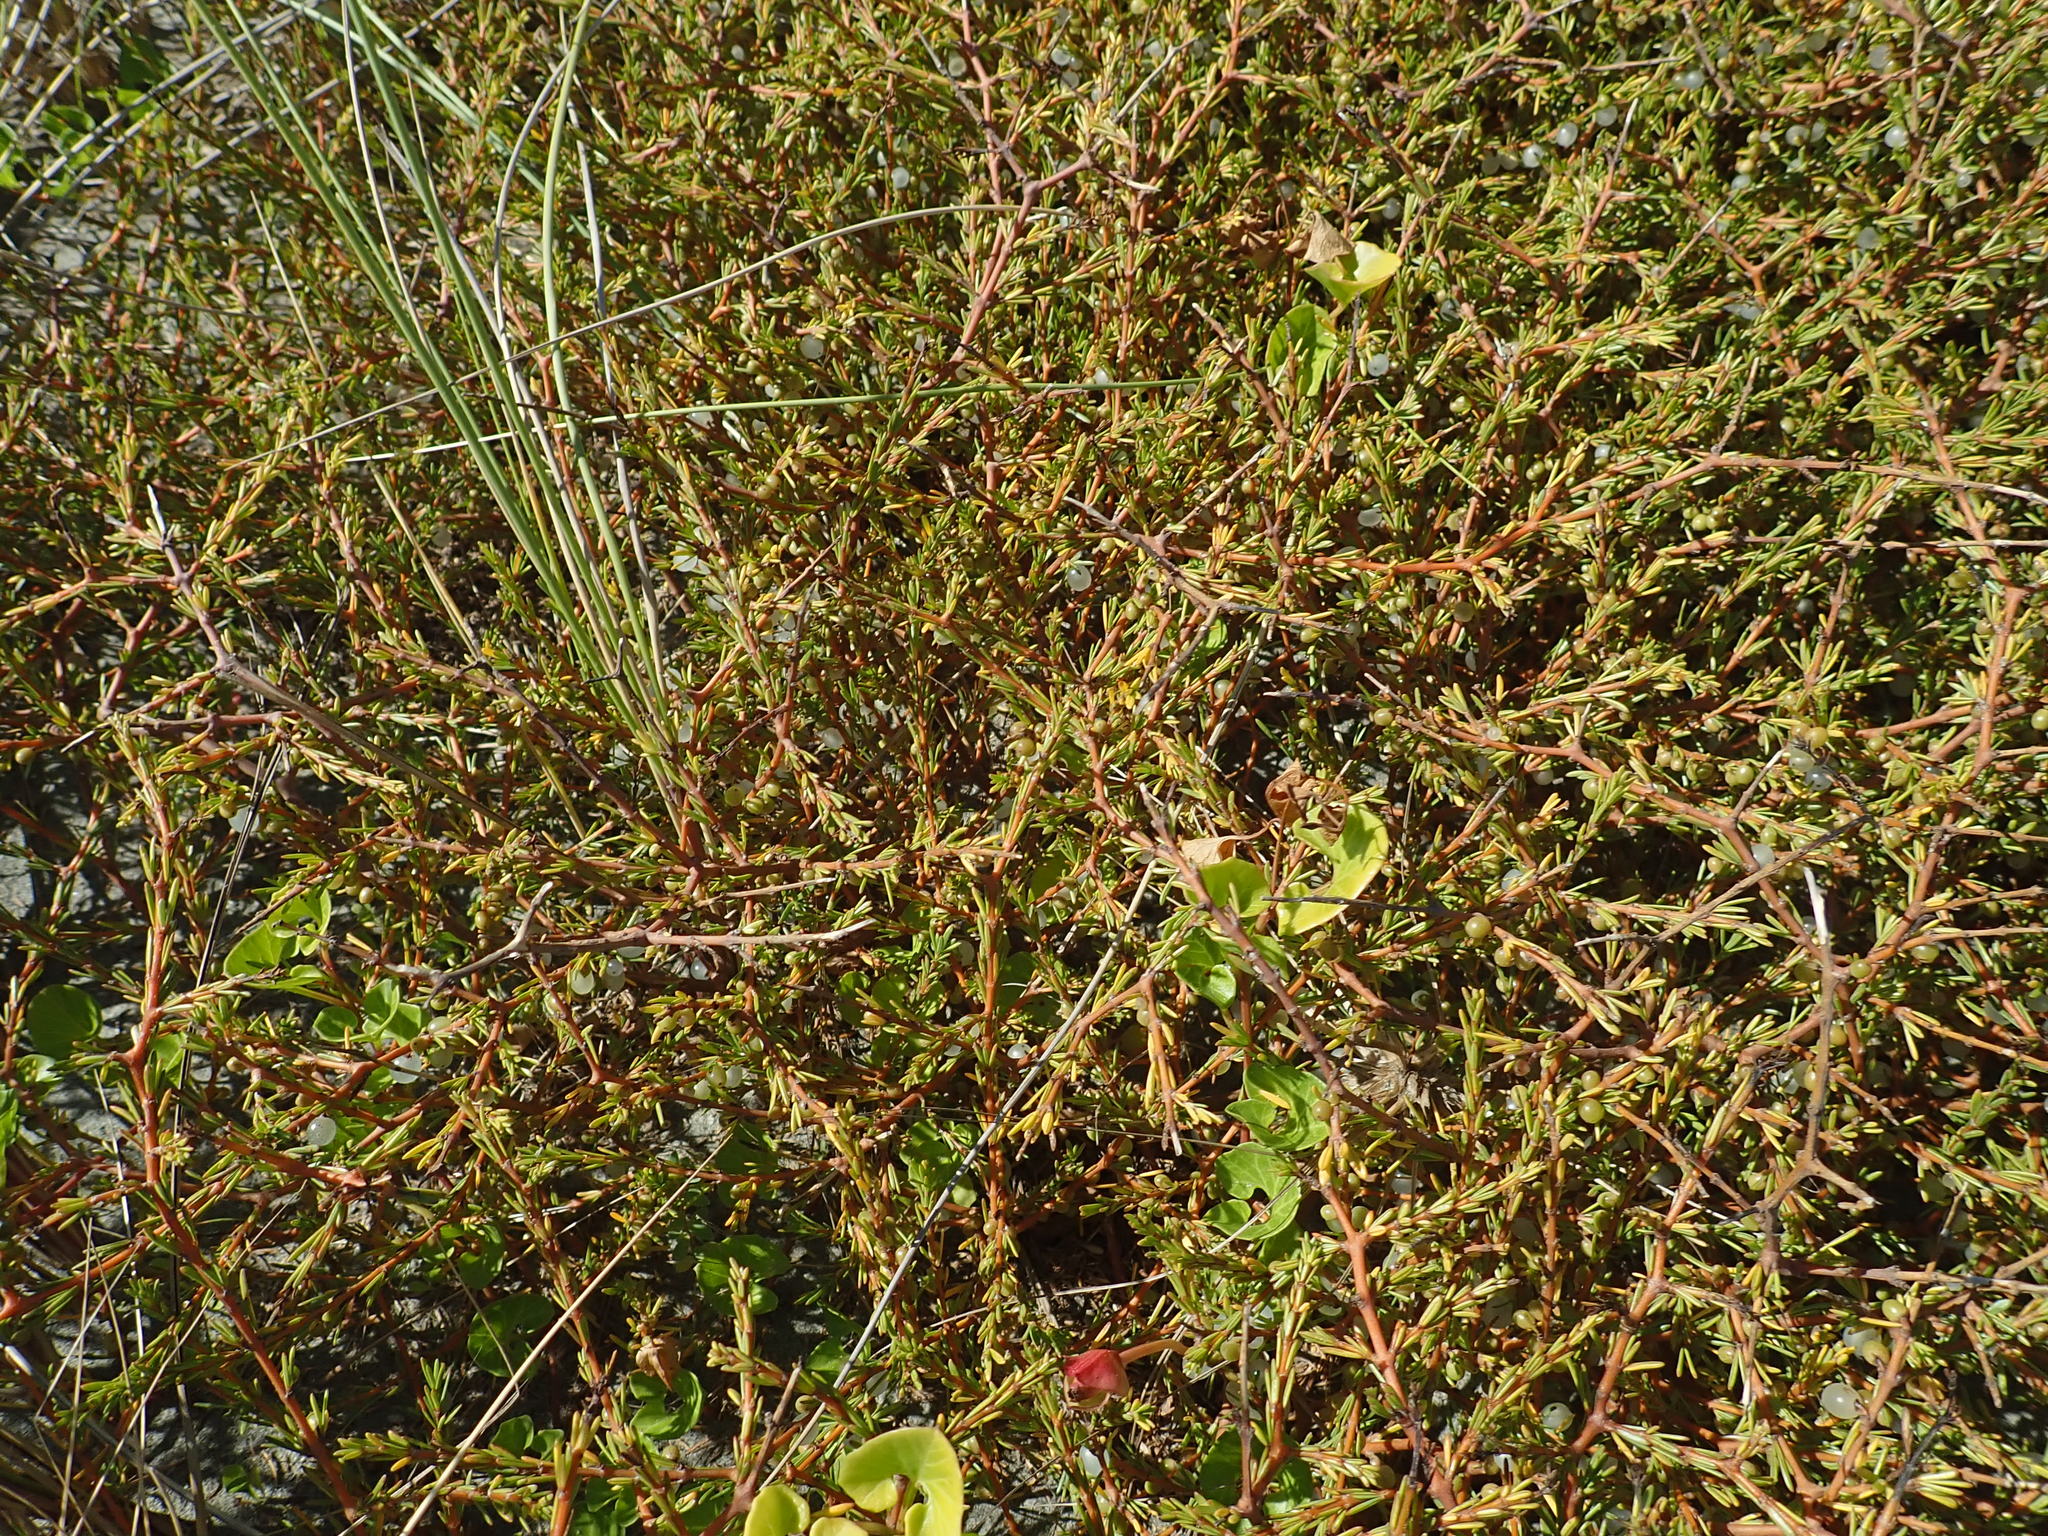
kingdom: Plantae
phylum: Tracheophyta
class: Magnoliopsida
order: Gentianales
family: Rubiaceae
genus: Coprosma
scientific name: Coprosma acerosa
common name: Sand coprosma
